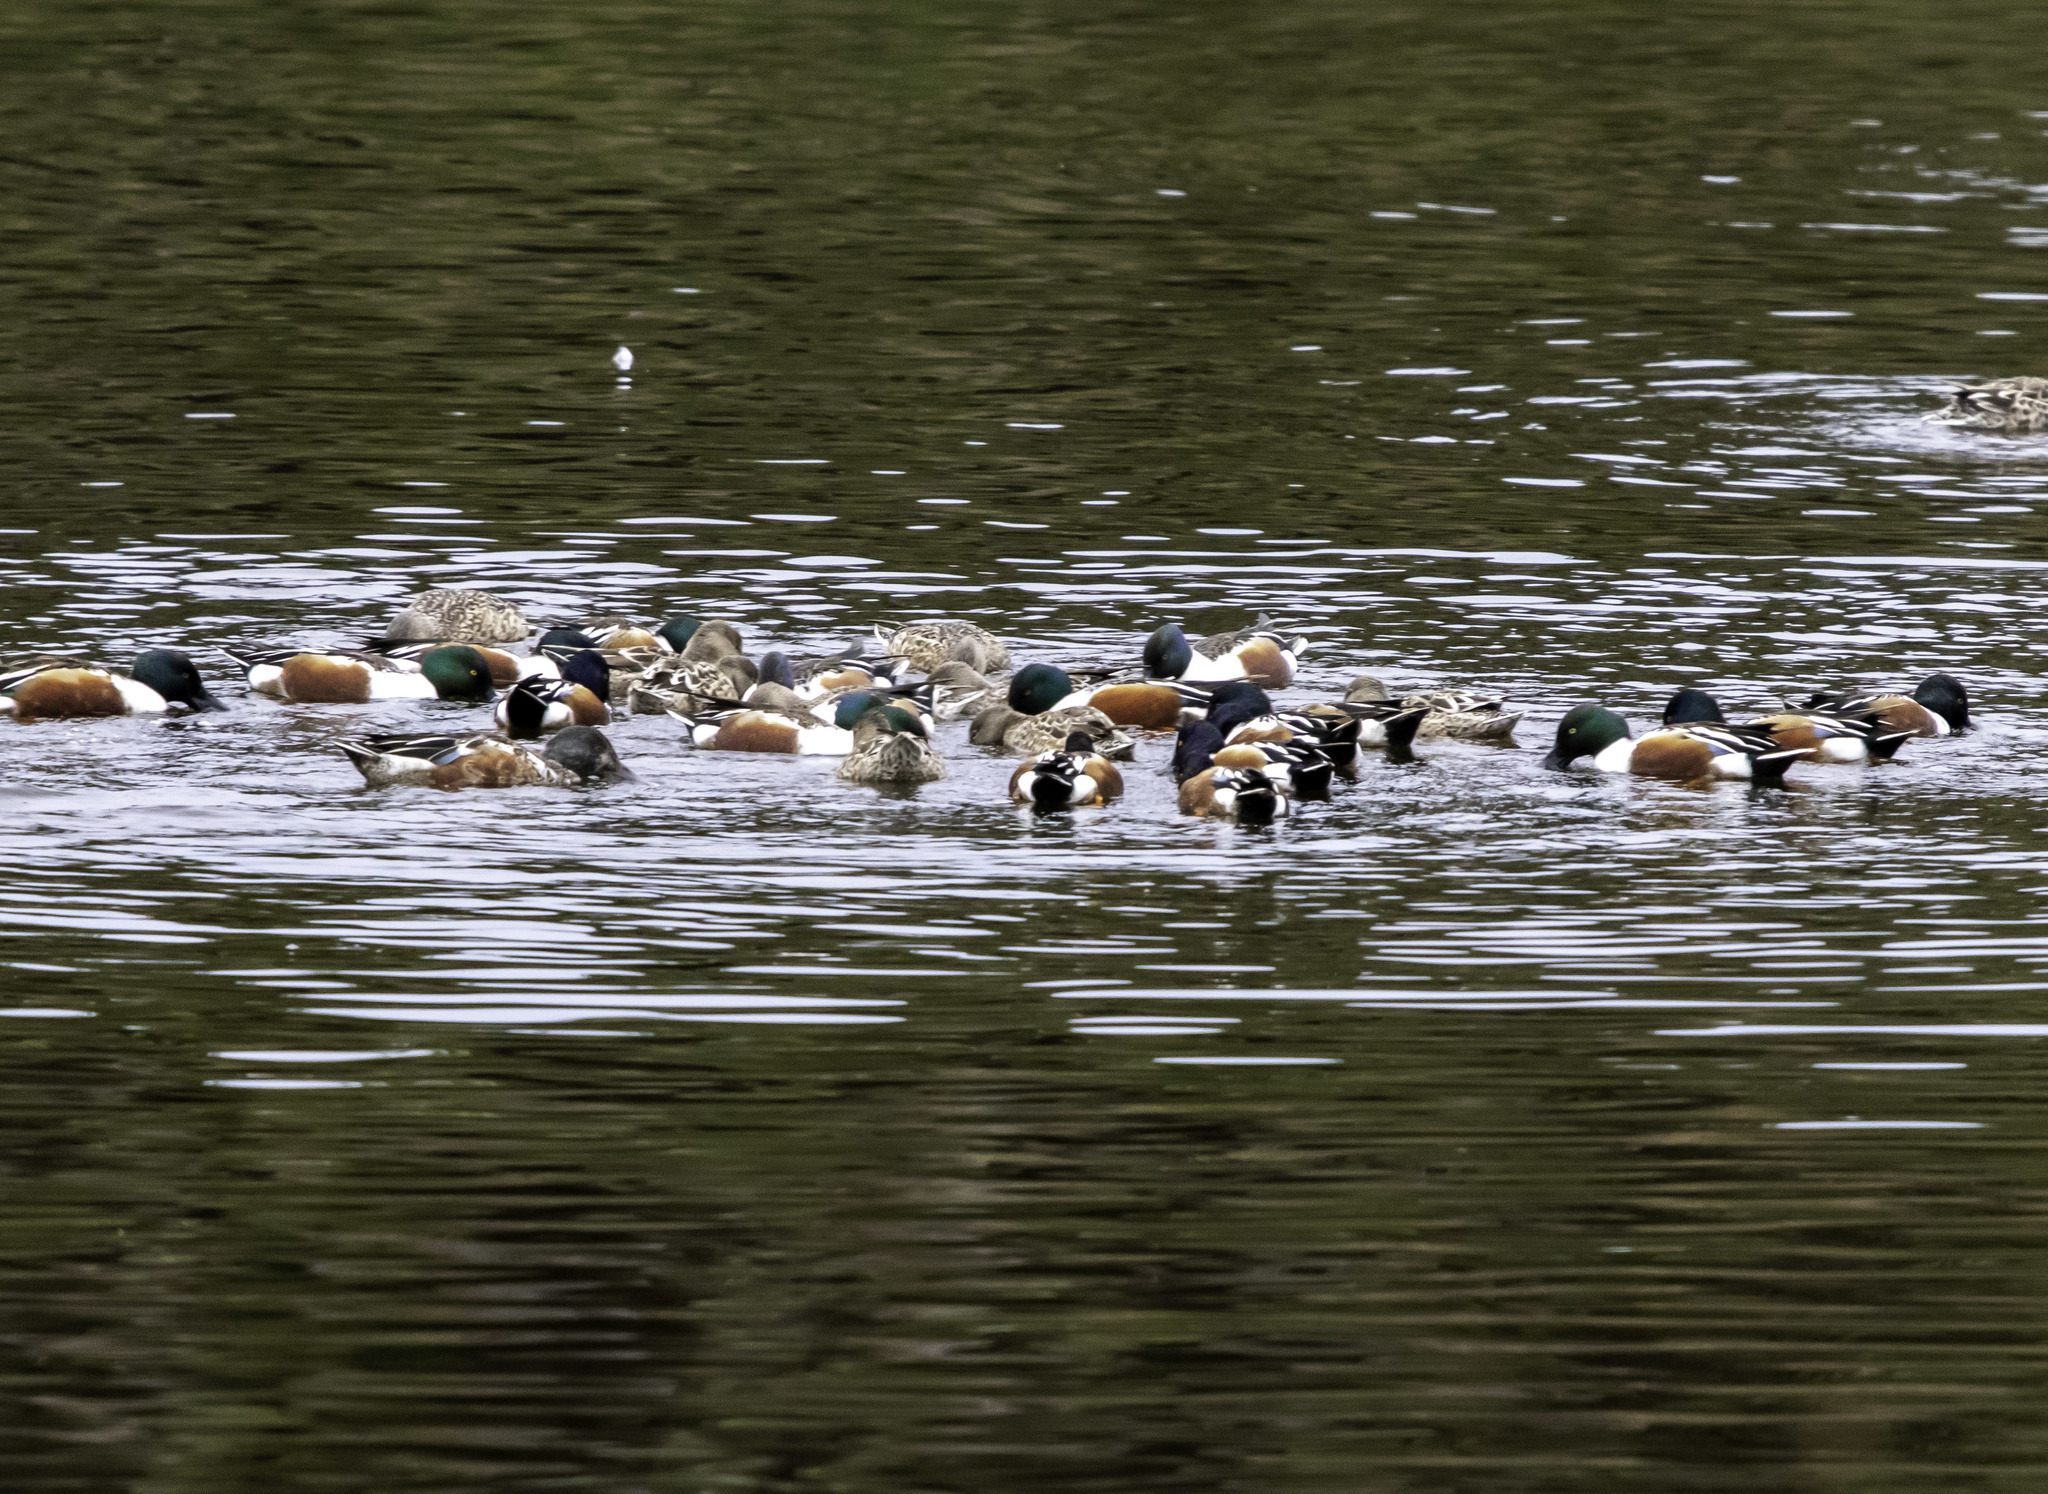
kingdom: Animalia
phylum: Chordata
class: Aves
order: Anseriformes
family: Anatidae
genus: Spatula
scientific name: Spatula clypeata
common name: Northern shoveler
